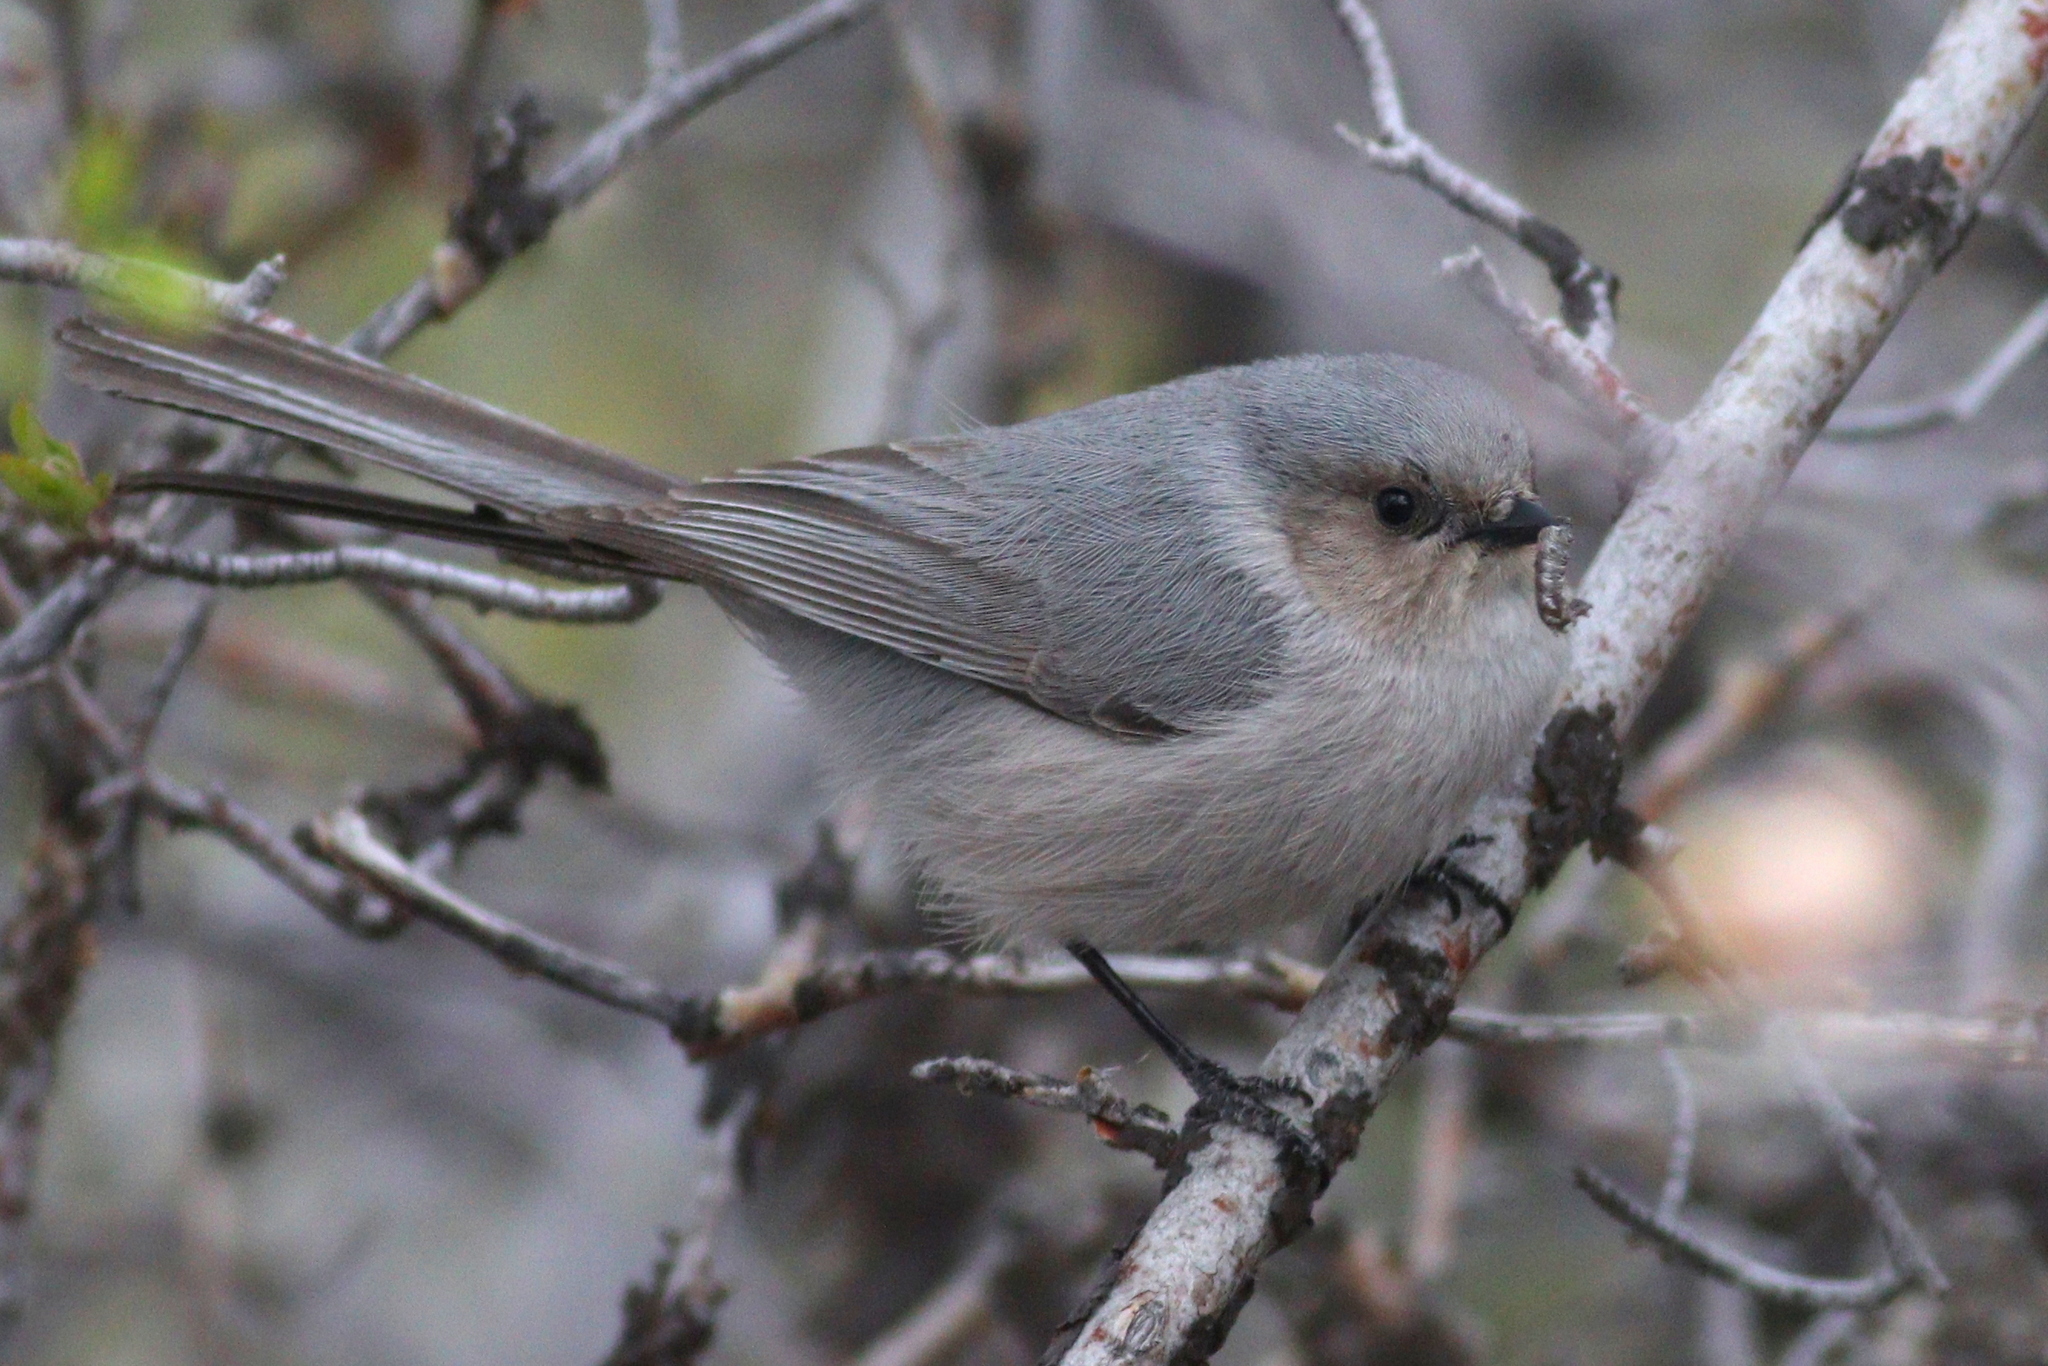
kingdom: Animalia
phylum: Chordata
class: Aves
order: Passeriformes
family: Aegithalidae
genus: Psaltriparus
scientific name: Psaltriparus minimus
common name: American bushtit
